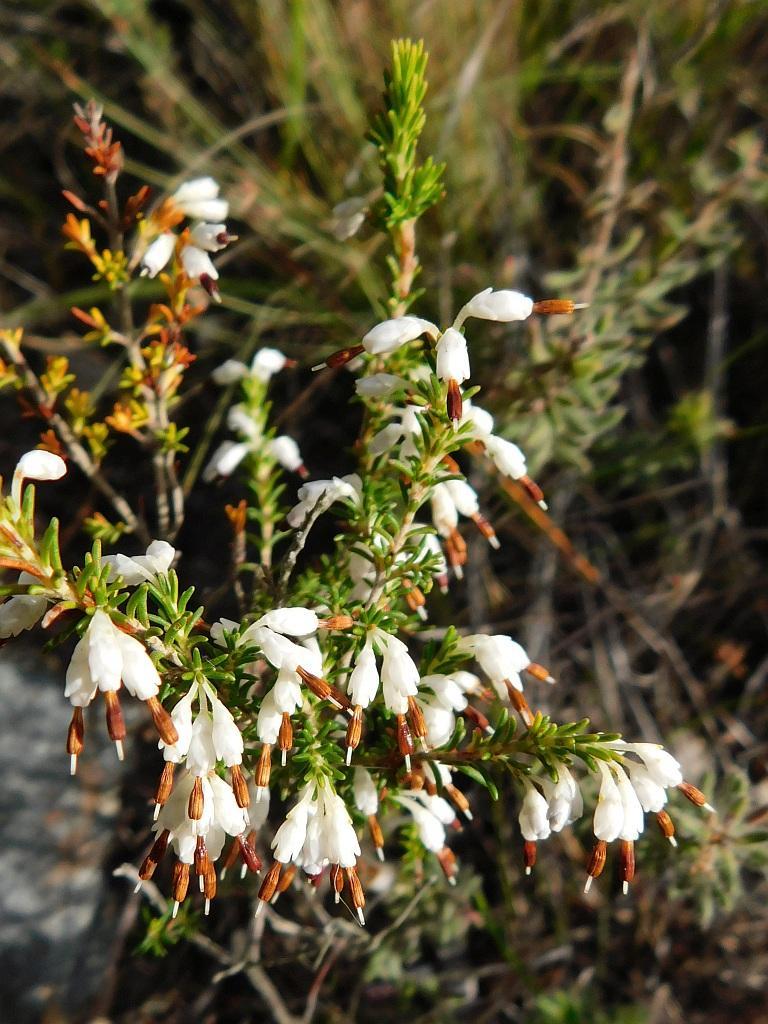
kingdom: Plantae
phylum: Tracheophyta
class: Magnoliopsida
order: Ericales
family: Ericaceae
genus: Erica
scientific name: Erica imbricata
